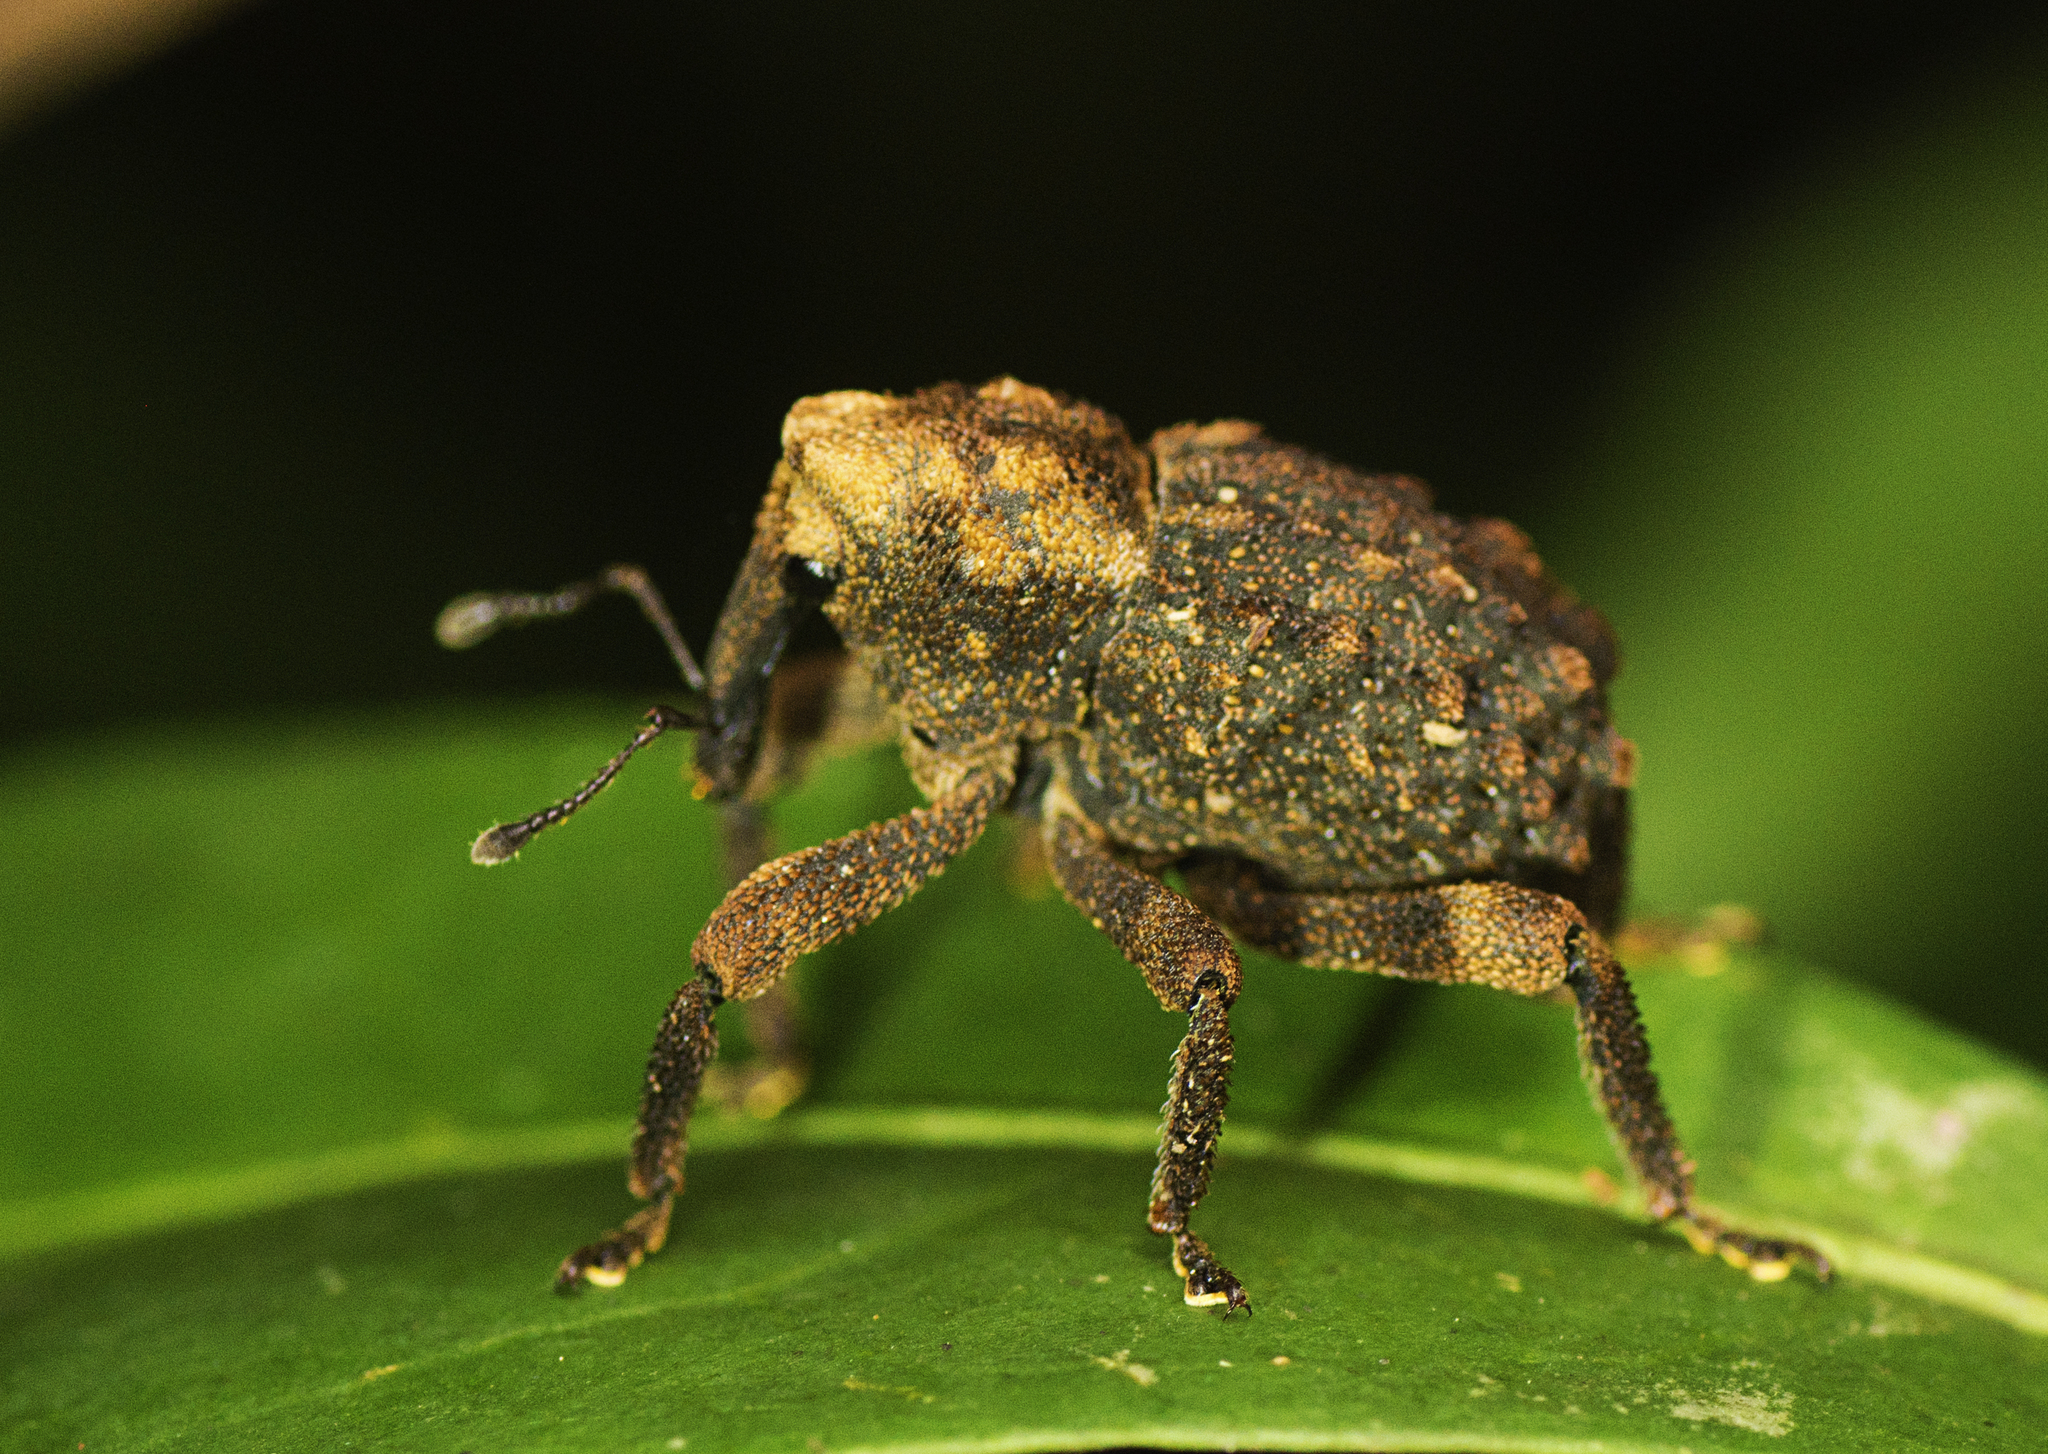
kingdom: Animalia
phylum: Arthropoda
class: Insecta
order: Coleoptera
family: Curculionidae
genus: Poropterus
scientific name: Poropterus morbillosus
